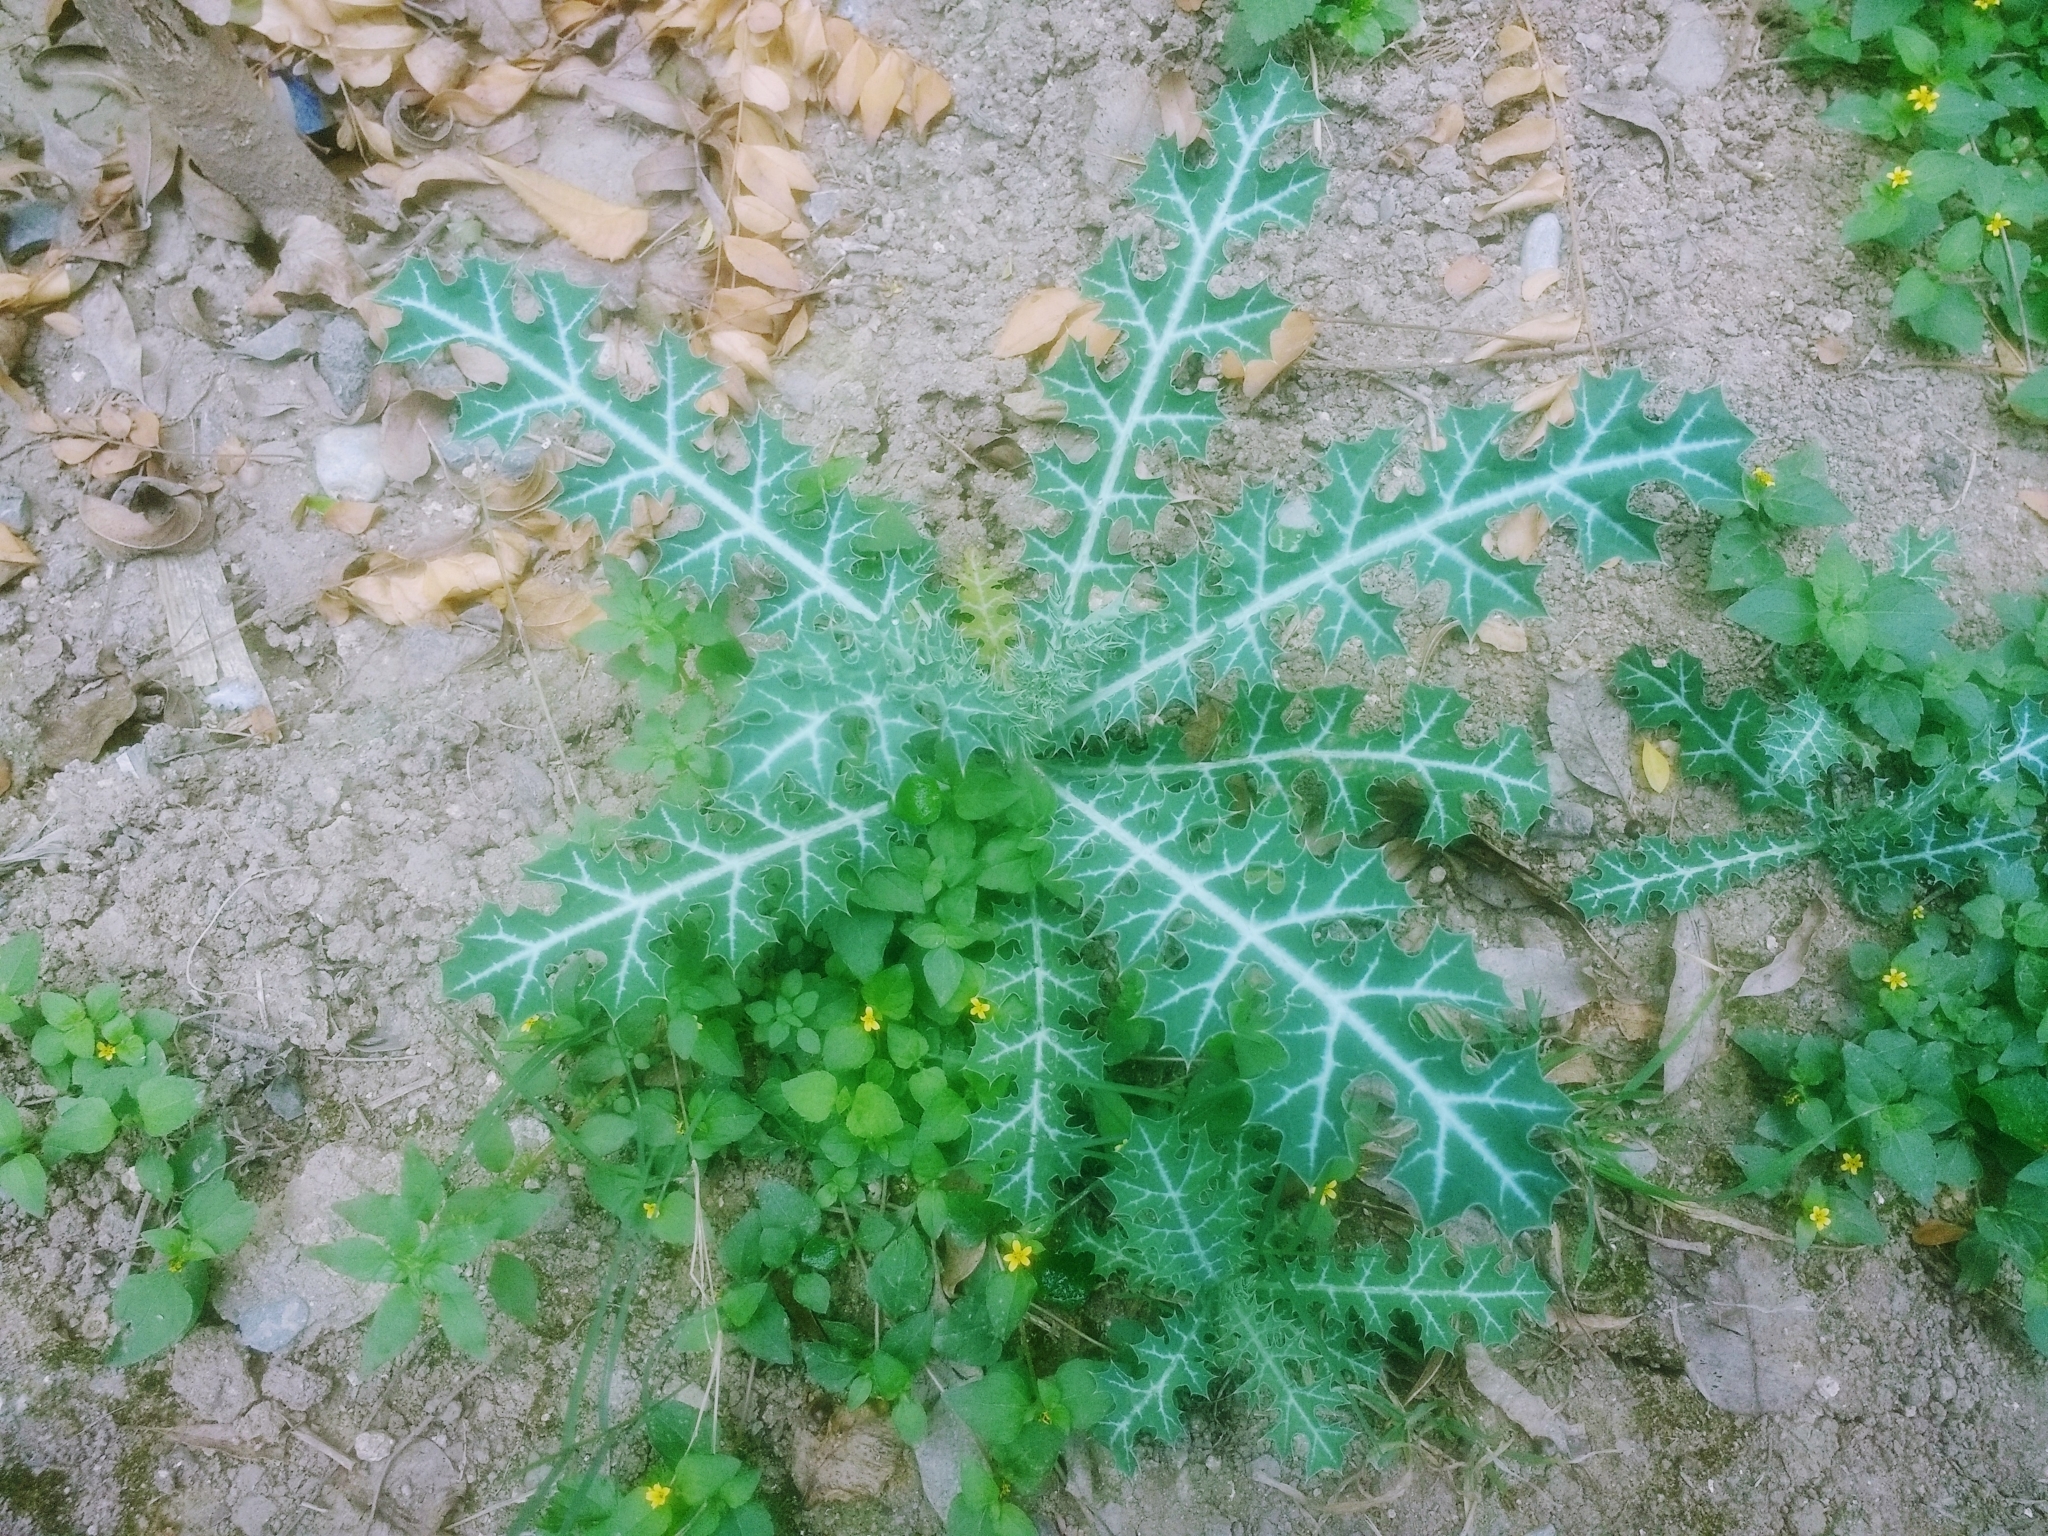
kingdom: Plantae
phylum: Tracheophyta
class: Magnoliopsida
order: Ranunculales
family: Papaveraceae
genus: Argemone
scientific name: Argemone mexicana
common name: Mexican poppy
